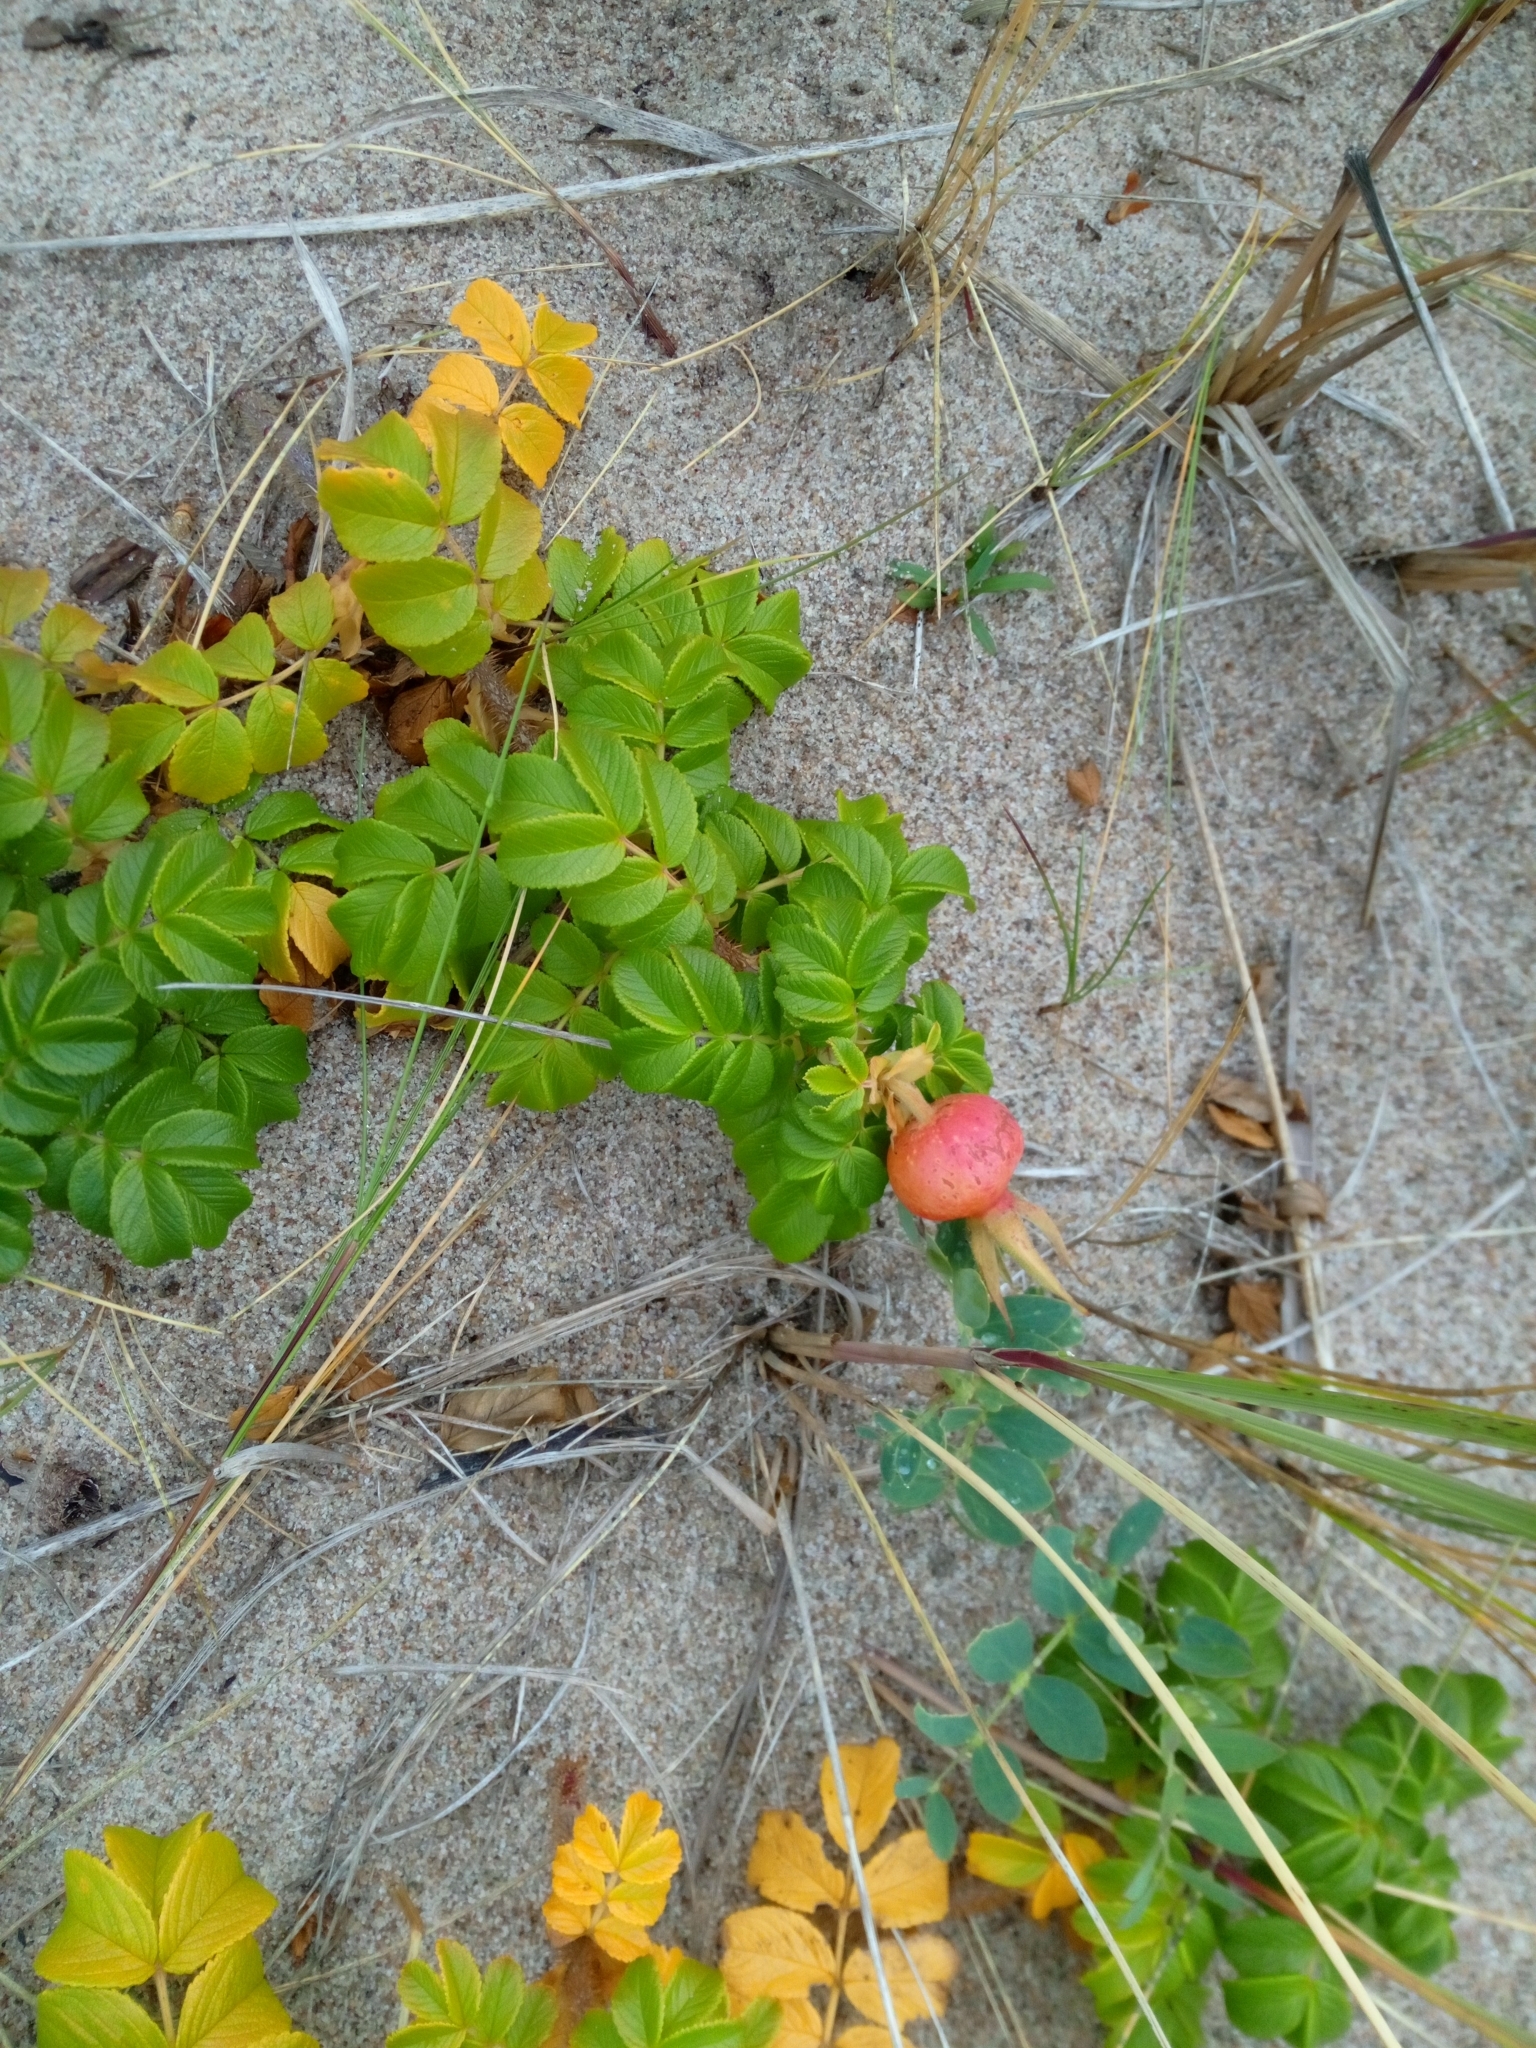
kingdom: Plantae
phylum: Tracheophyta
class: Magnoliopsida
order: Rosales
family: Rosaceae
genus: Rosa
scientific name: Rosa rugosa
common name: Japanese rose
